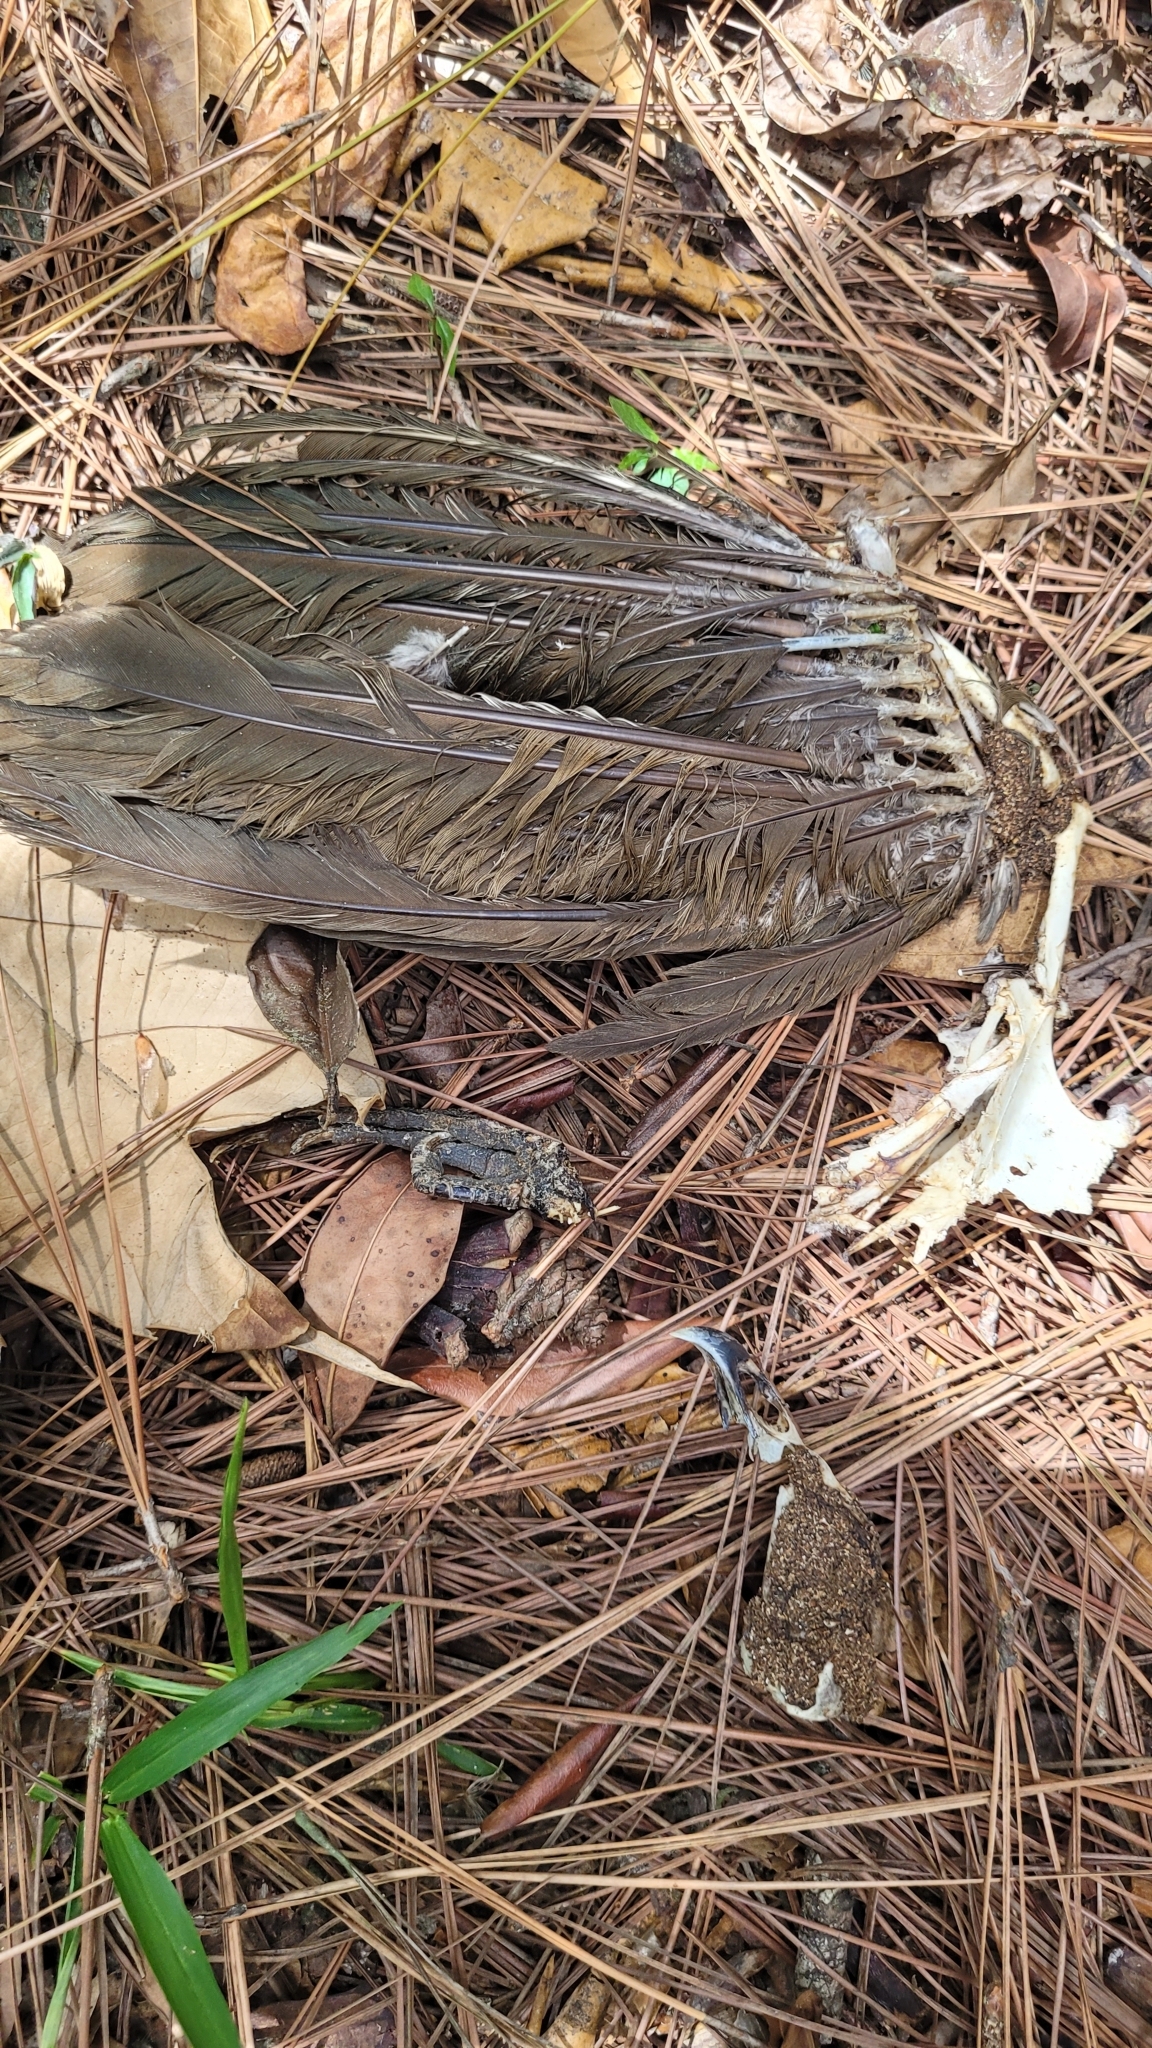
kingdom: Animalia
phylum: Chordata
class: Aves
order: Galliformes
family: Cracidae
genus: Ortalis
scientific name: Ortalis vetula
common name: Plain chachalaca
